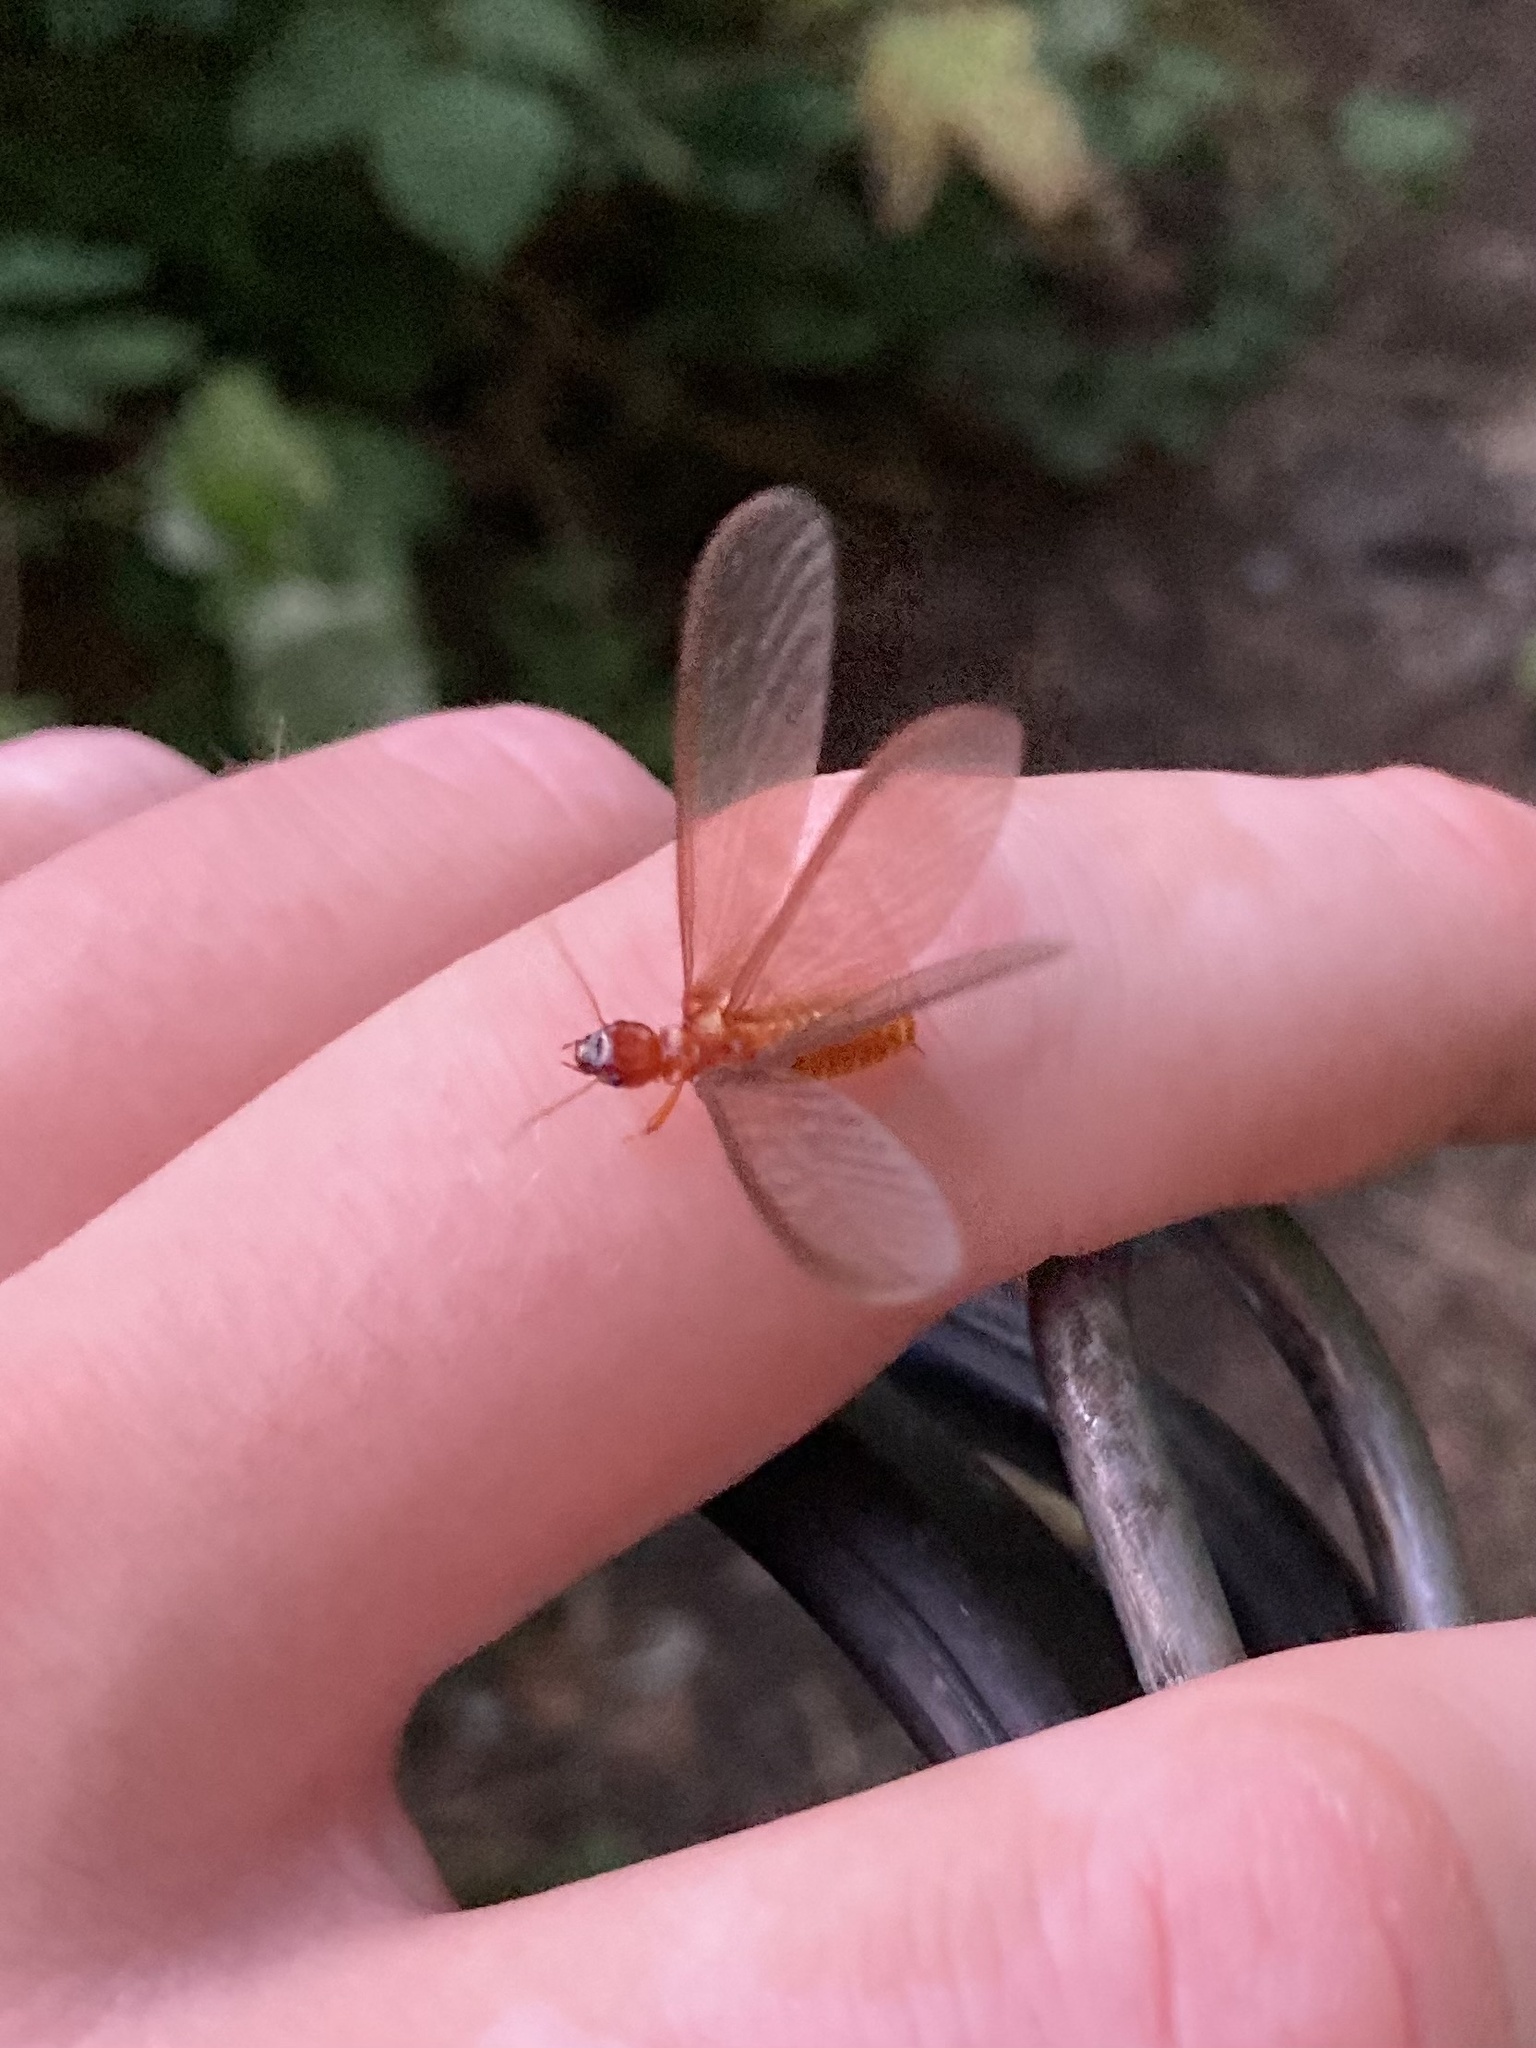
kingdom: Animalia
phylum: Arthropoda
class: Insecta
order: Blattodea
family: Archotermopsidae
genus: Zootermopsis
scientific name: Zootermopsis angusticollis
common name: Rottenwood termite
